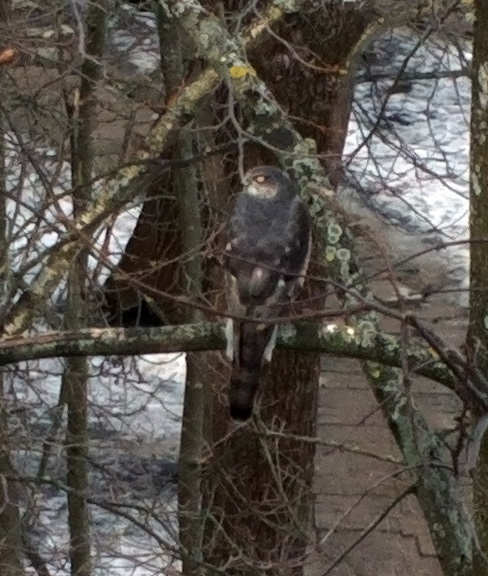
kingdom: Animalia
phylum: Chordata
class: Aves
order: Accipitriformes
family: Accipitridae
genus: Accipiter
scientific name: Accipiter nisus
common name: Eurasian sparrowhawk
